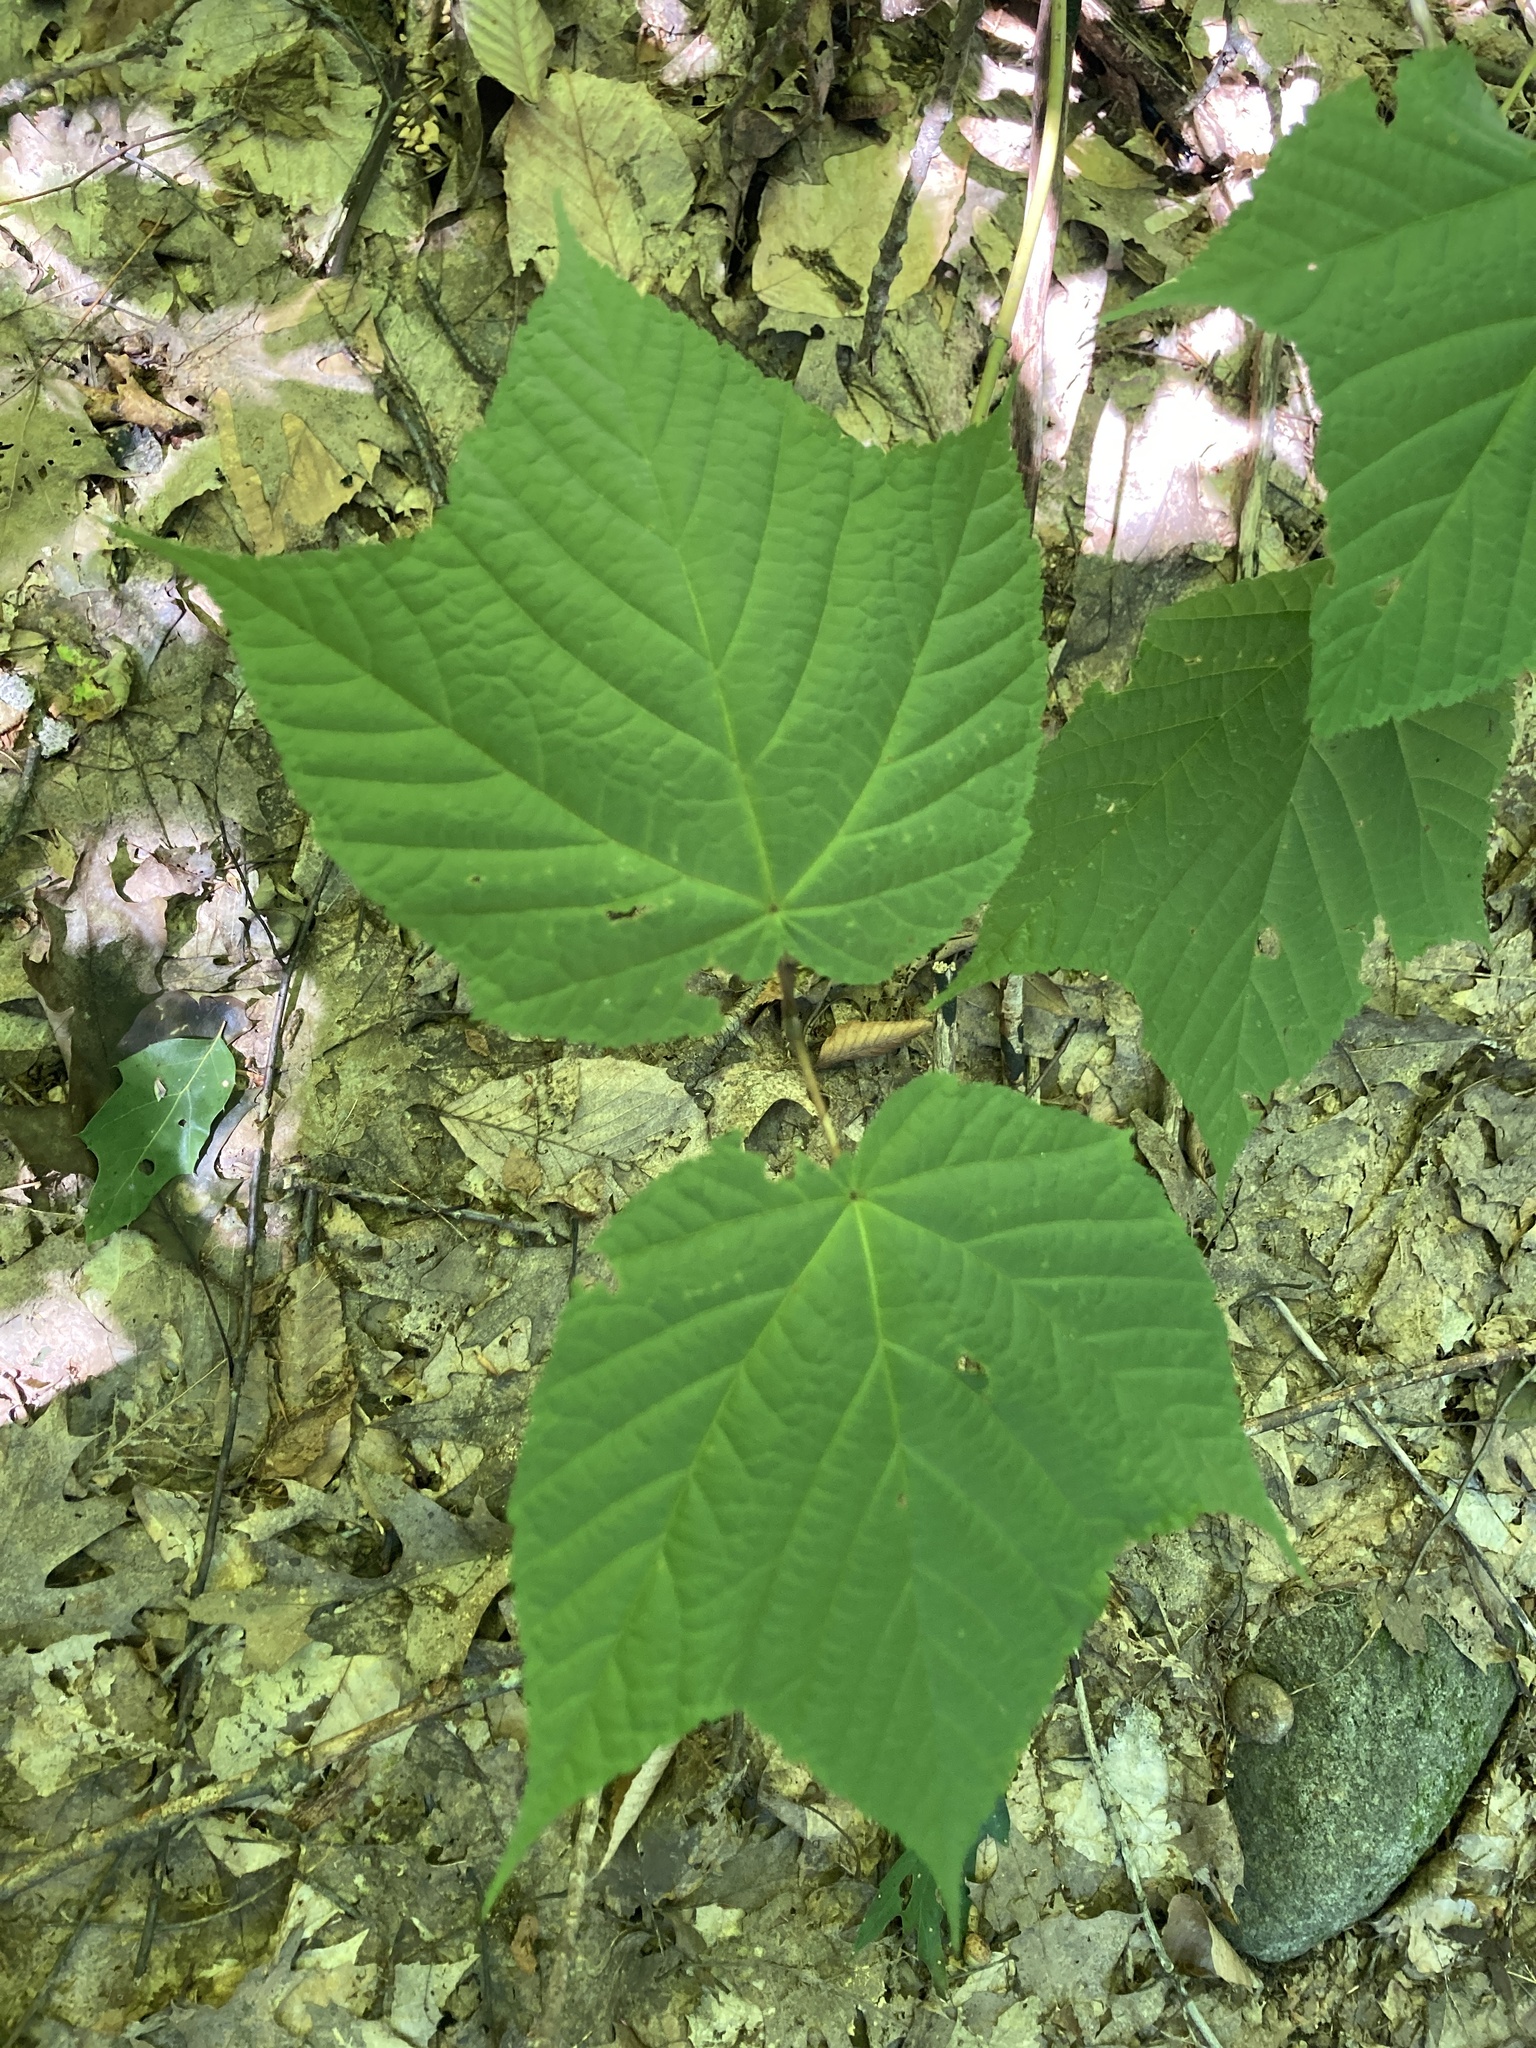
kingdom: Plantae
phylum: Tracheophyta
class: Magnoliopsida
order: Sapindales
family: Sapindaceae
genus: Acer
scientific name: Acer pensylvanicum
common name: Moosewood
